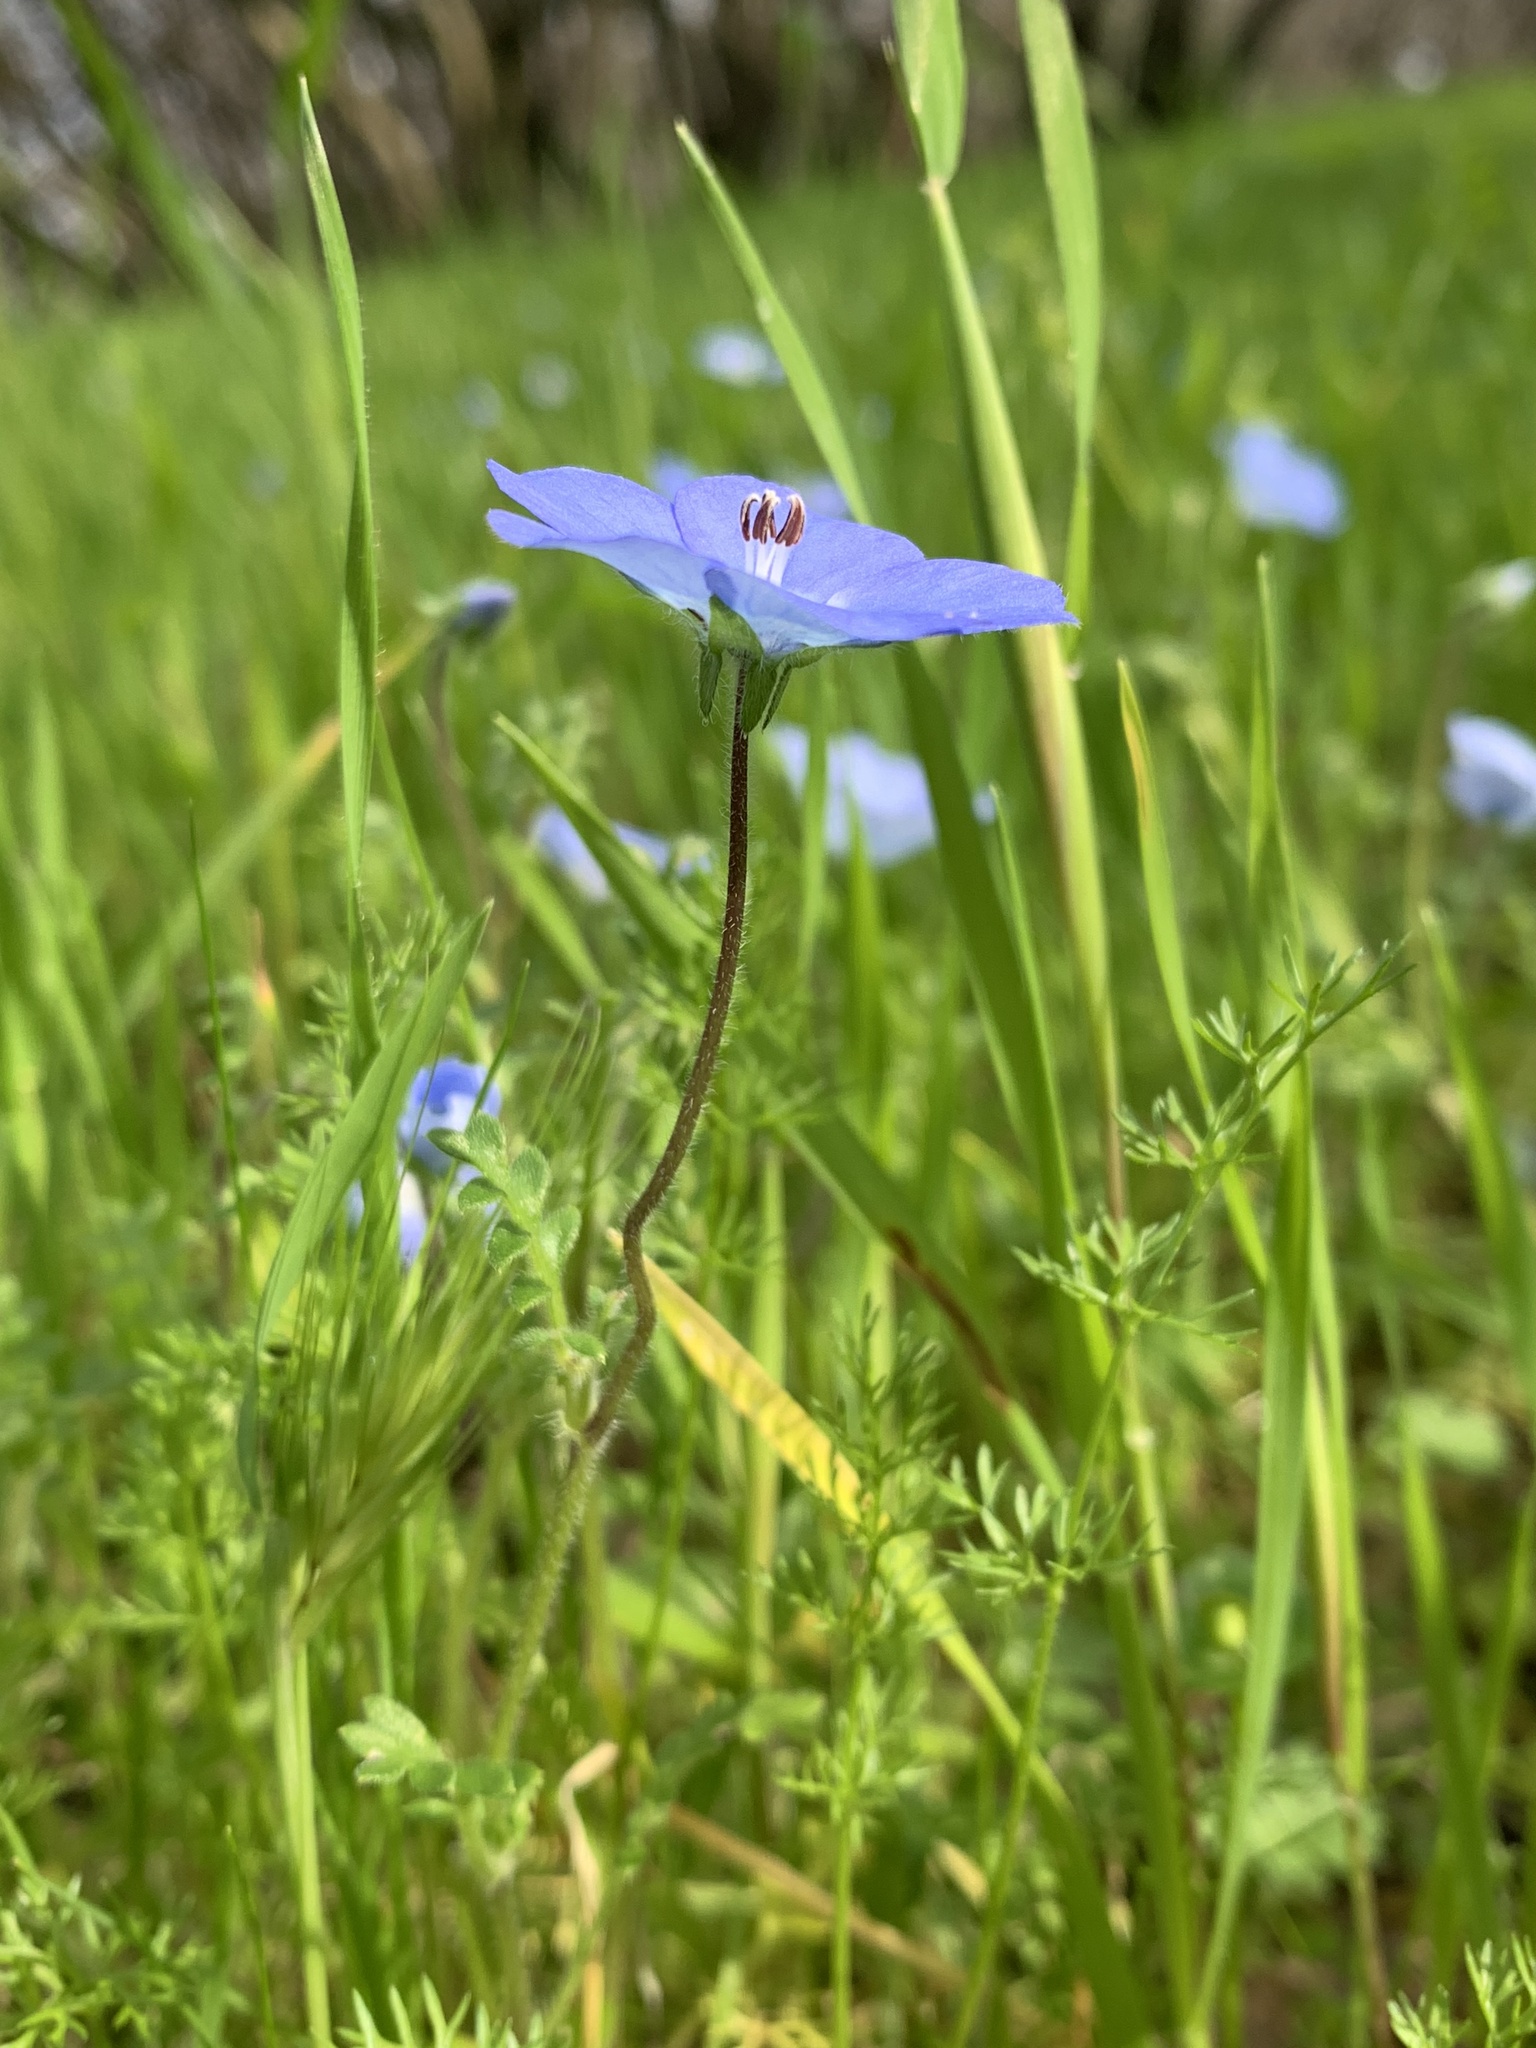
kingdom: Plantae
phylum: Tracheophyta
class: Magnoliopsida
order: Boraginales
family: Hydrophyllaceae
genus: Nemophila
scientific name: Nemophila menziesii
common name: Baby's-blue-eyes
